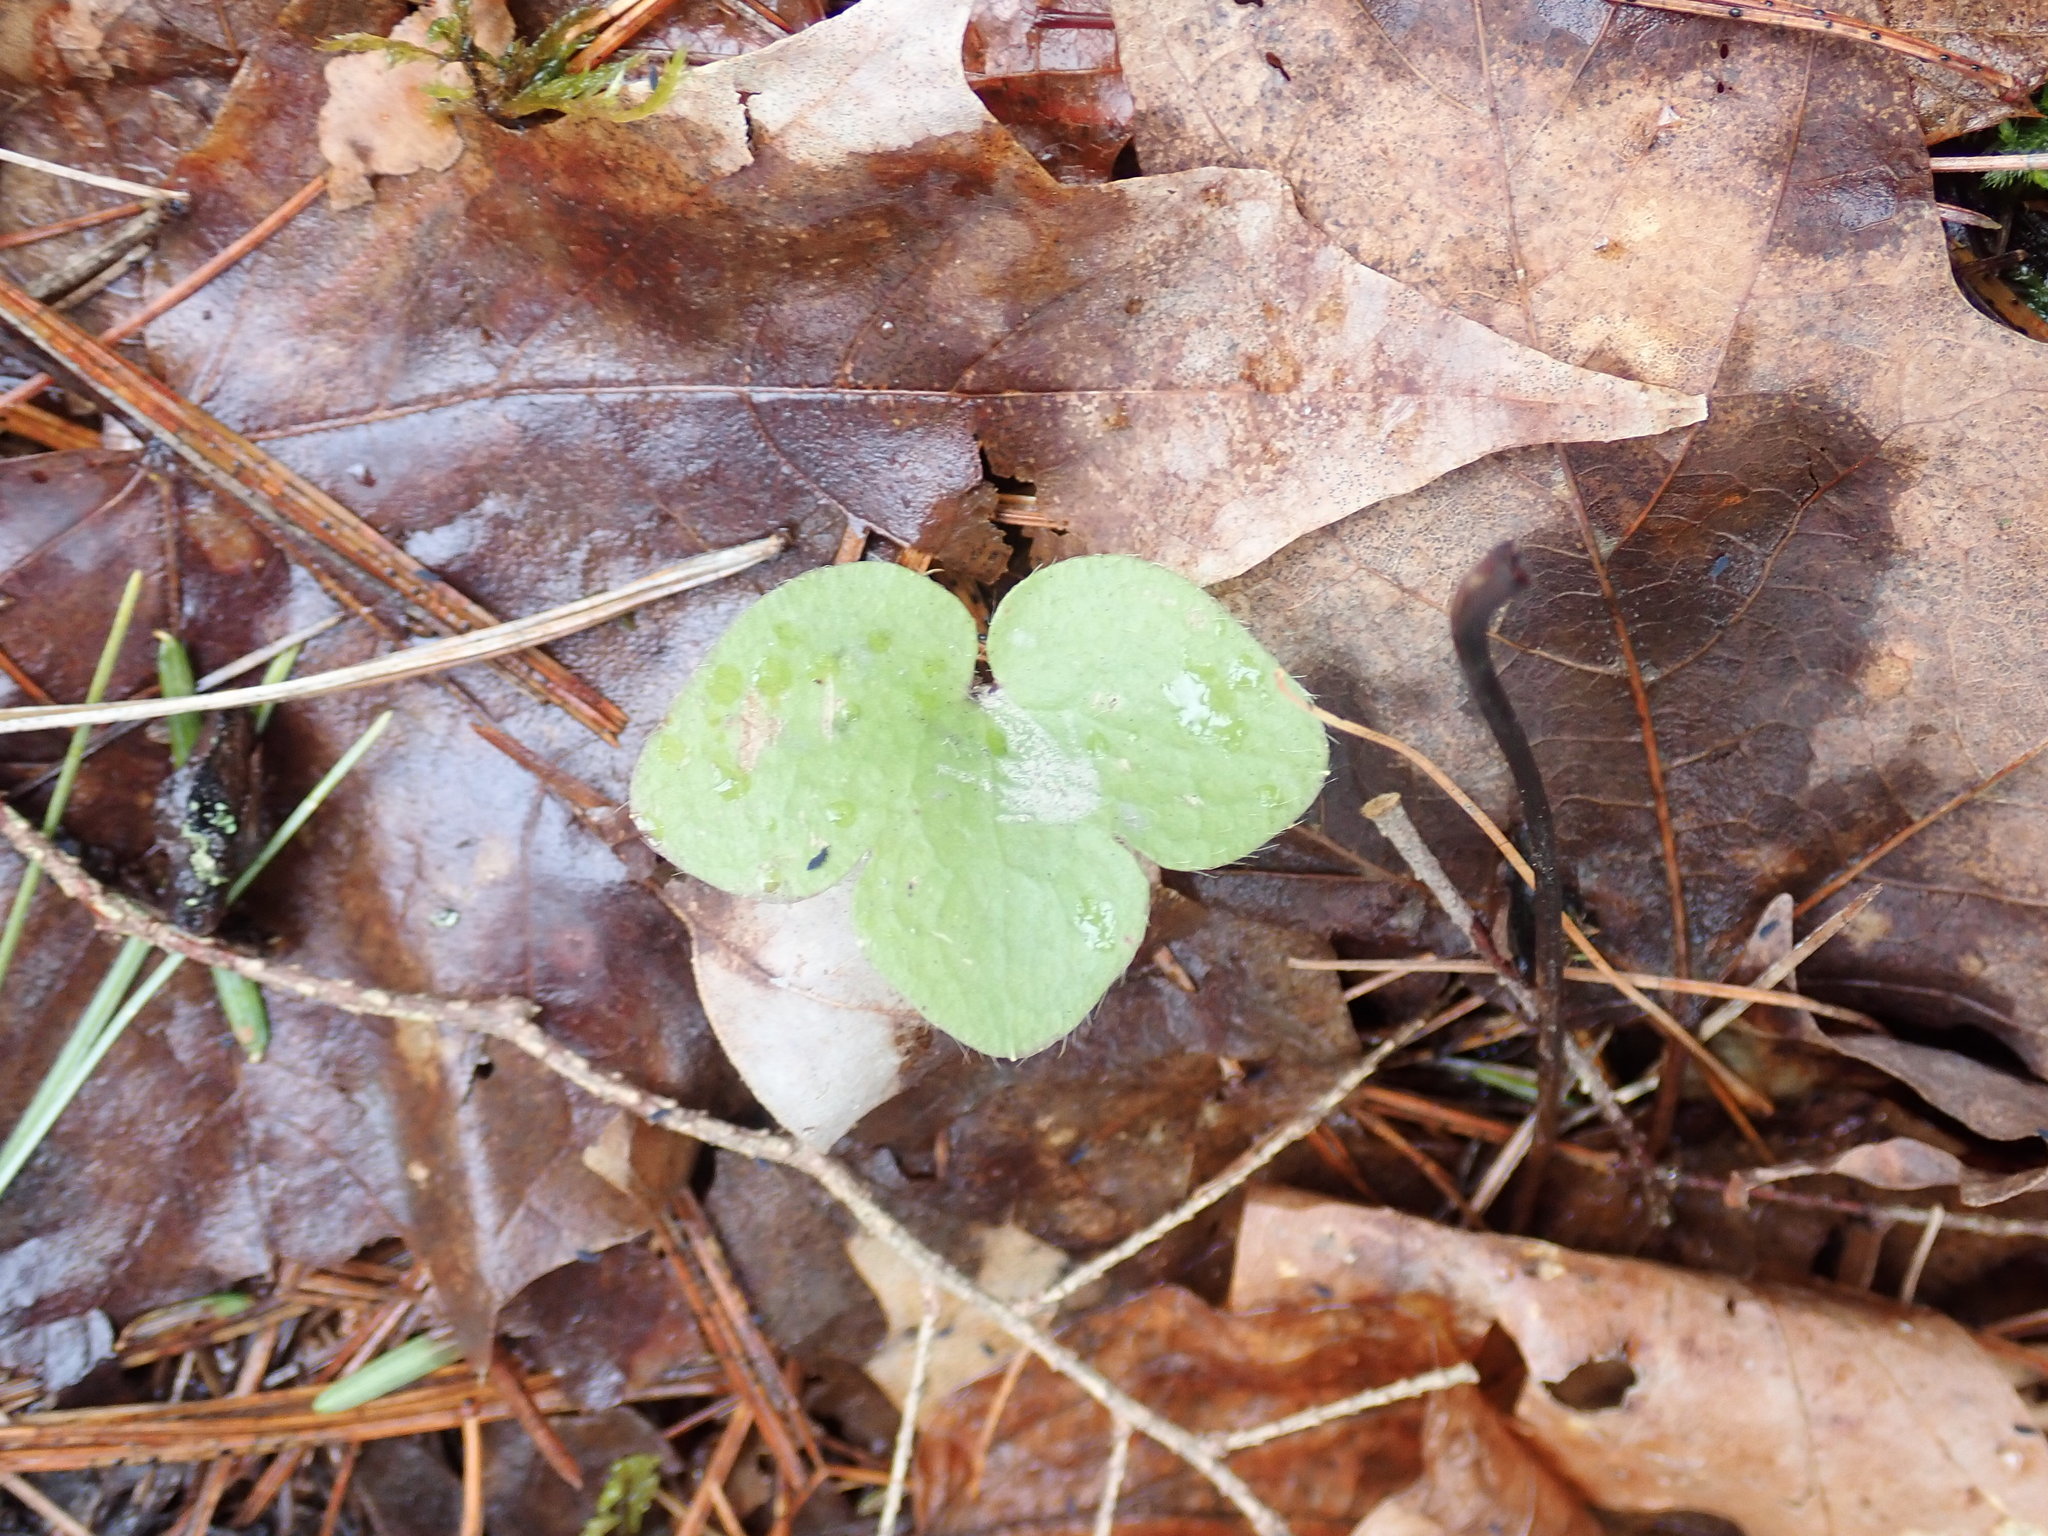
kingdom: Plantae
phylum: Tracheophyta
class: Magnoliopsida
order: Ranunculales
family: Ranunculaceae
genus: Hepatica
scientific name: Hepatica americana
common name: American hepatica
